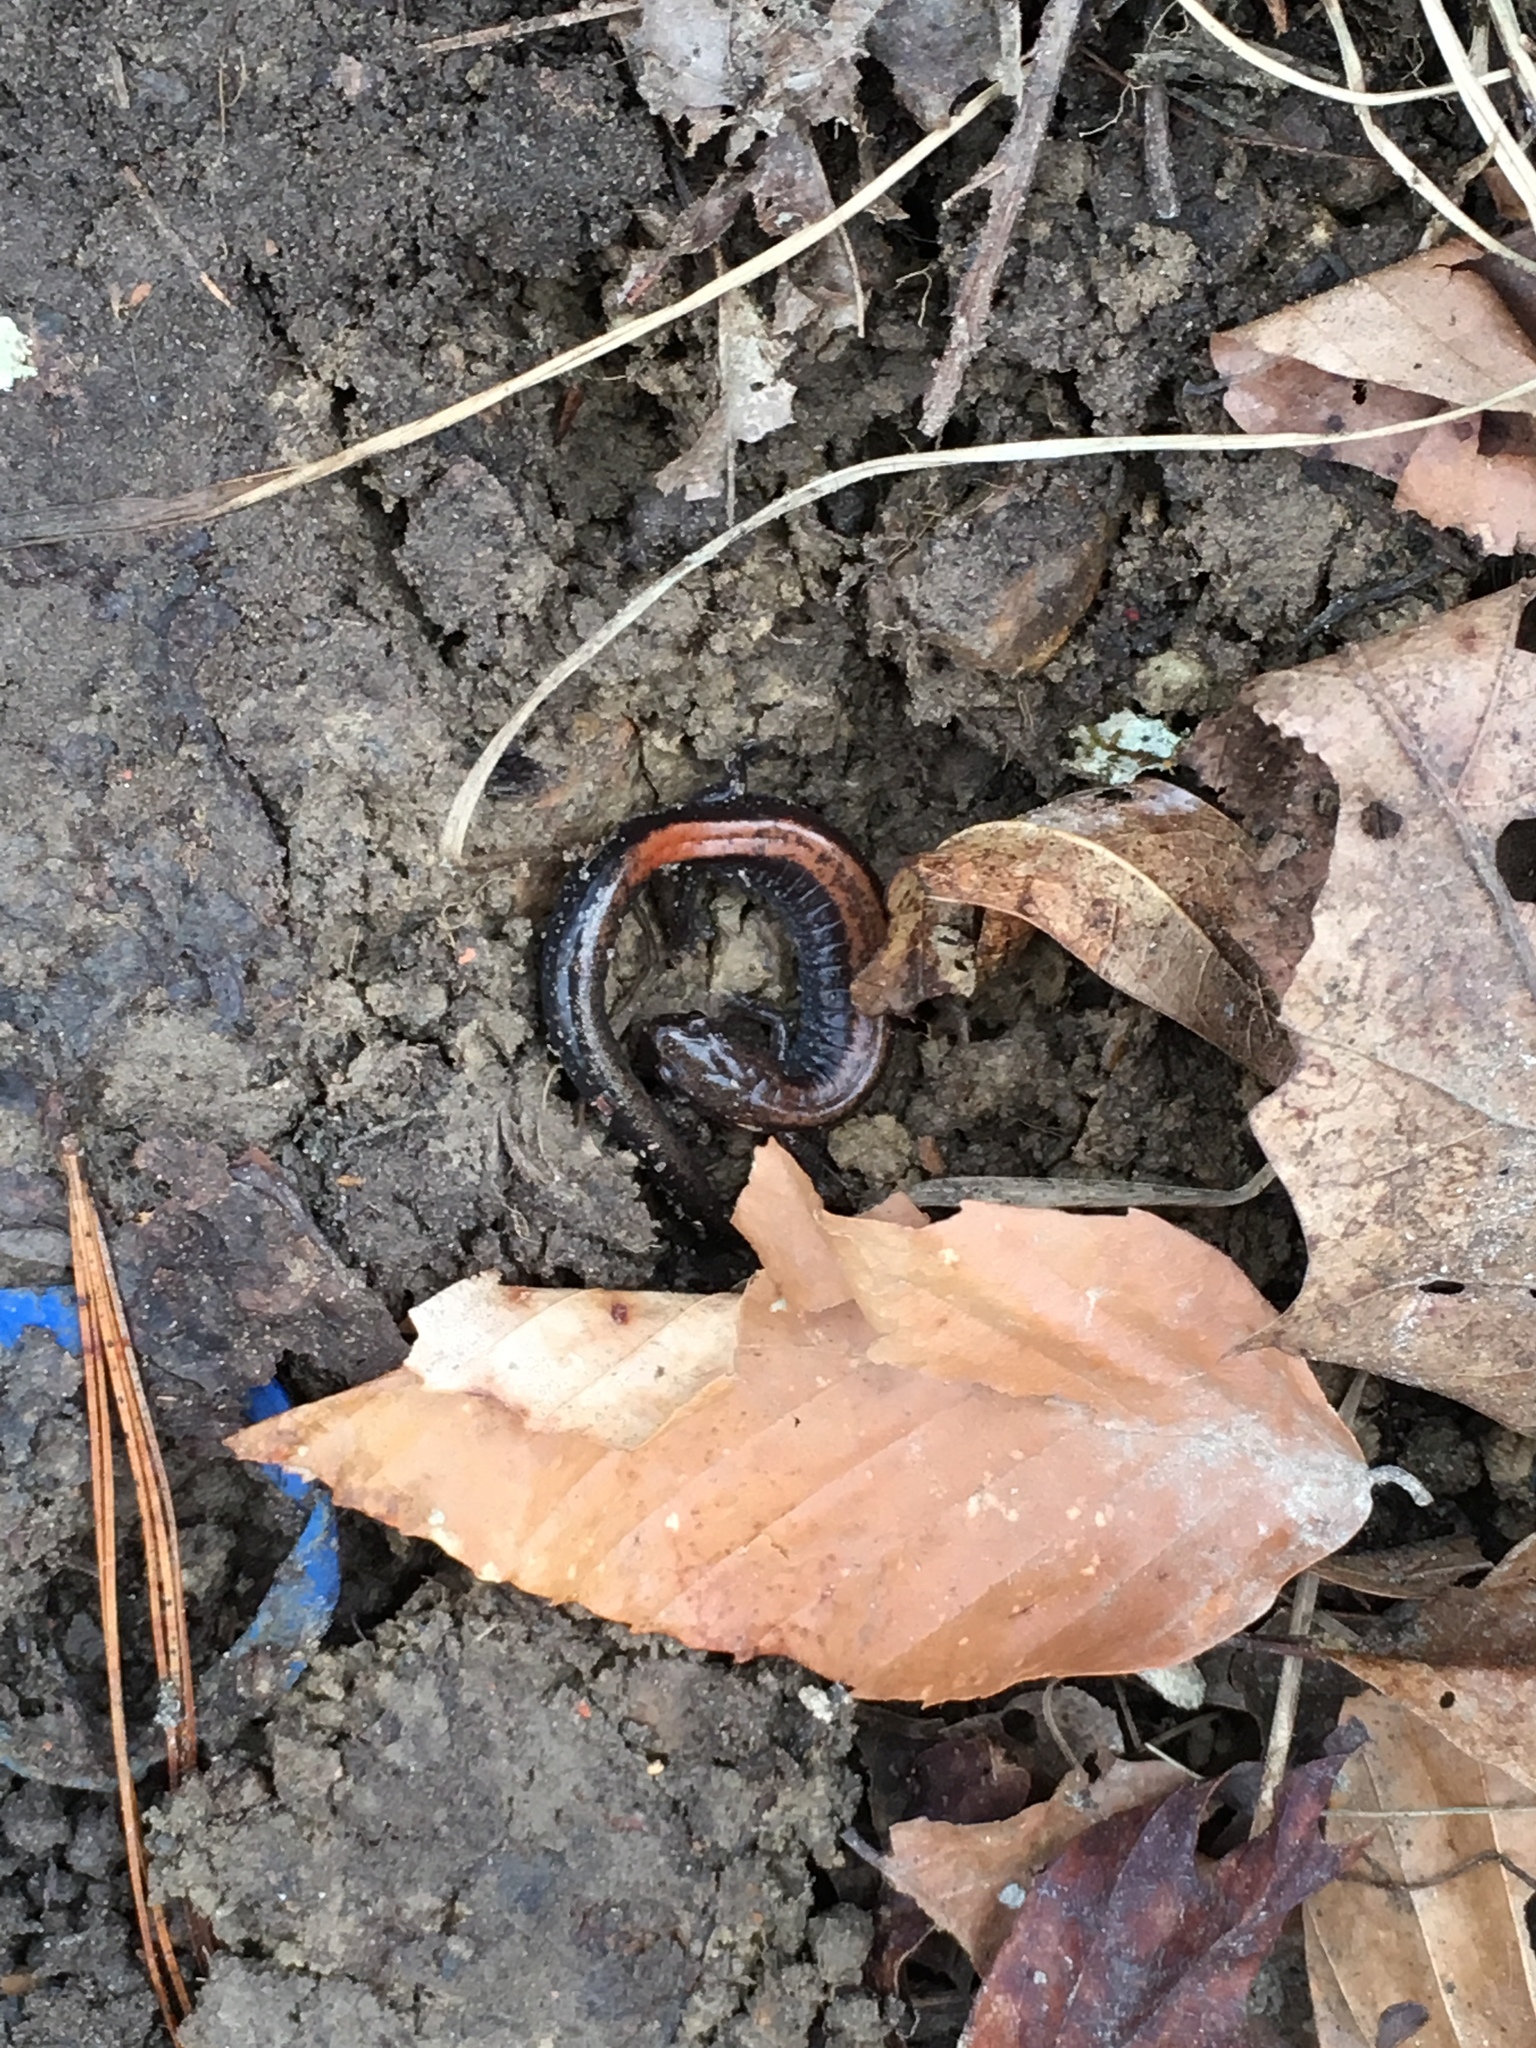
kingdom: Animalia
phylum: Chordata
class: Amphibia
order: Caudata
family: Plethodontidae
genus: Plethodon
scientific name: Plethodon cinereus
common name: Redback salamander
